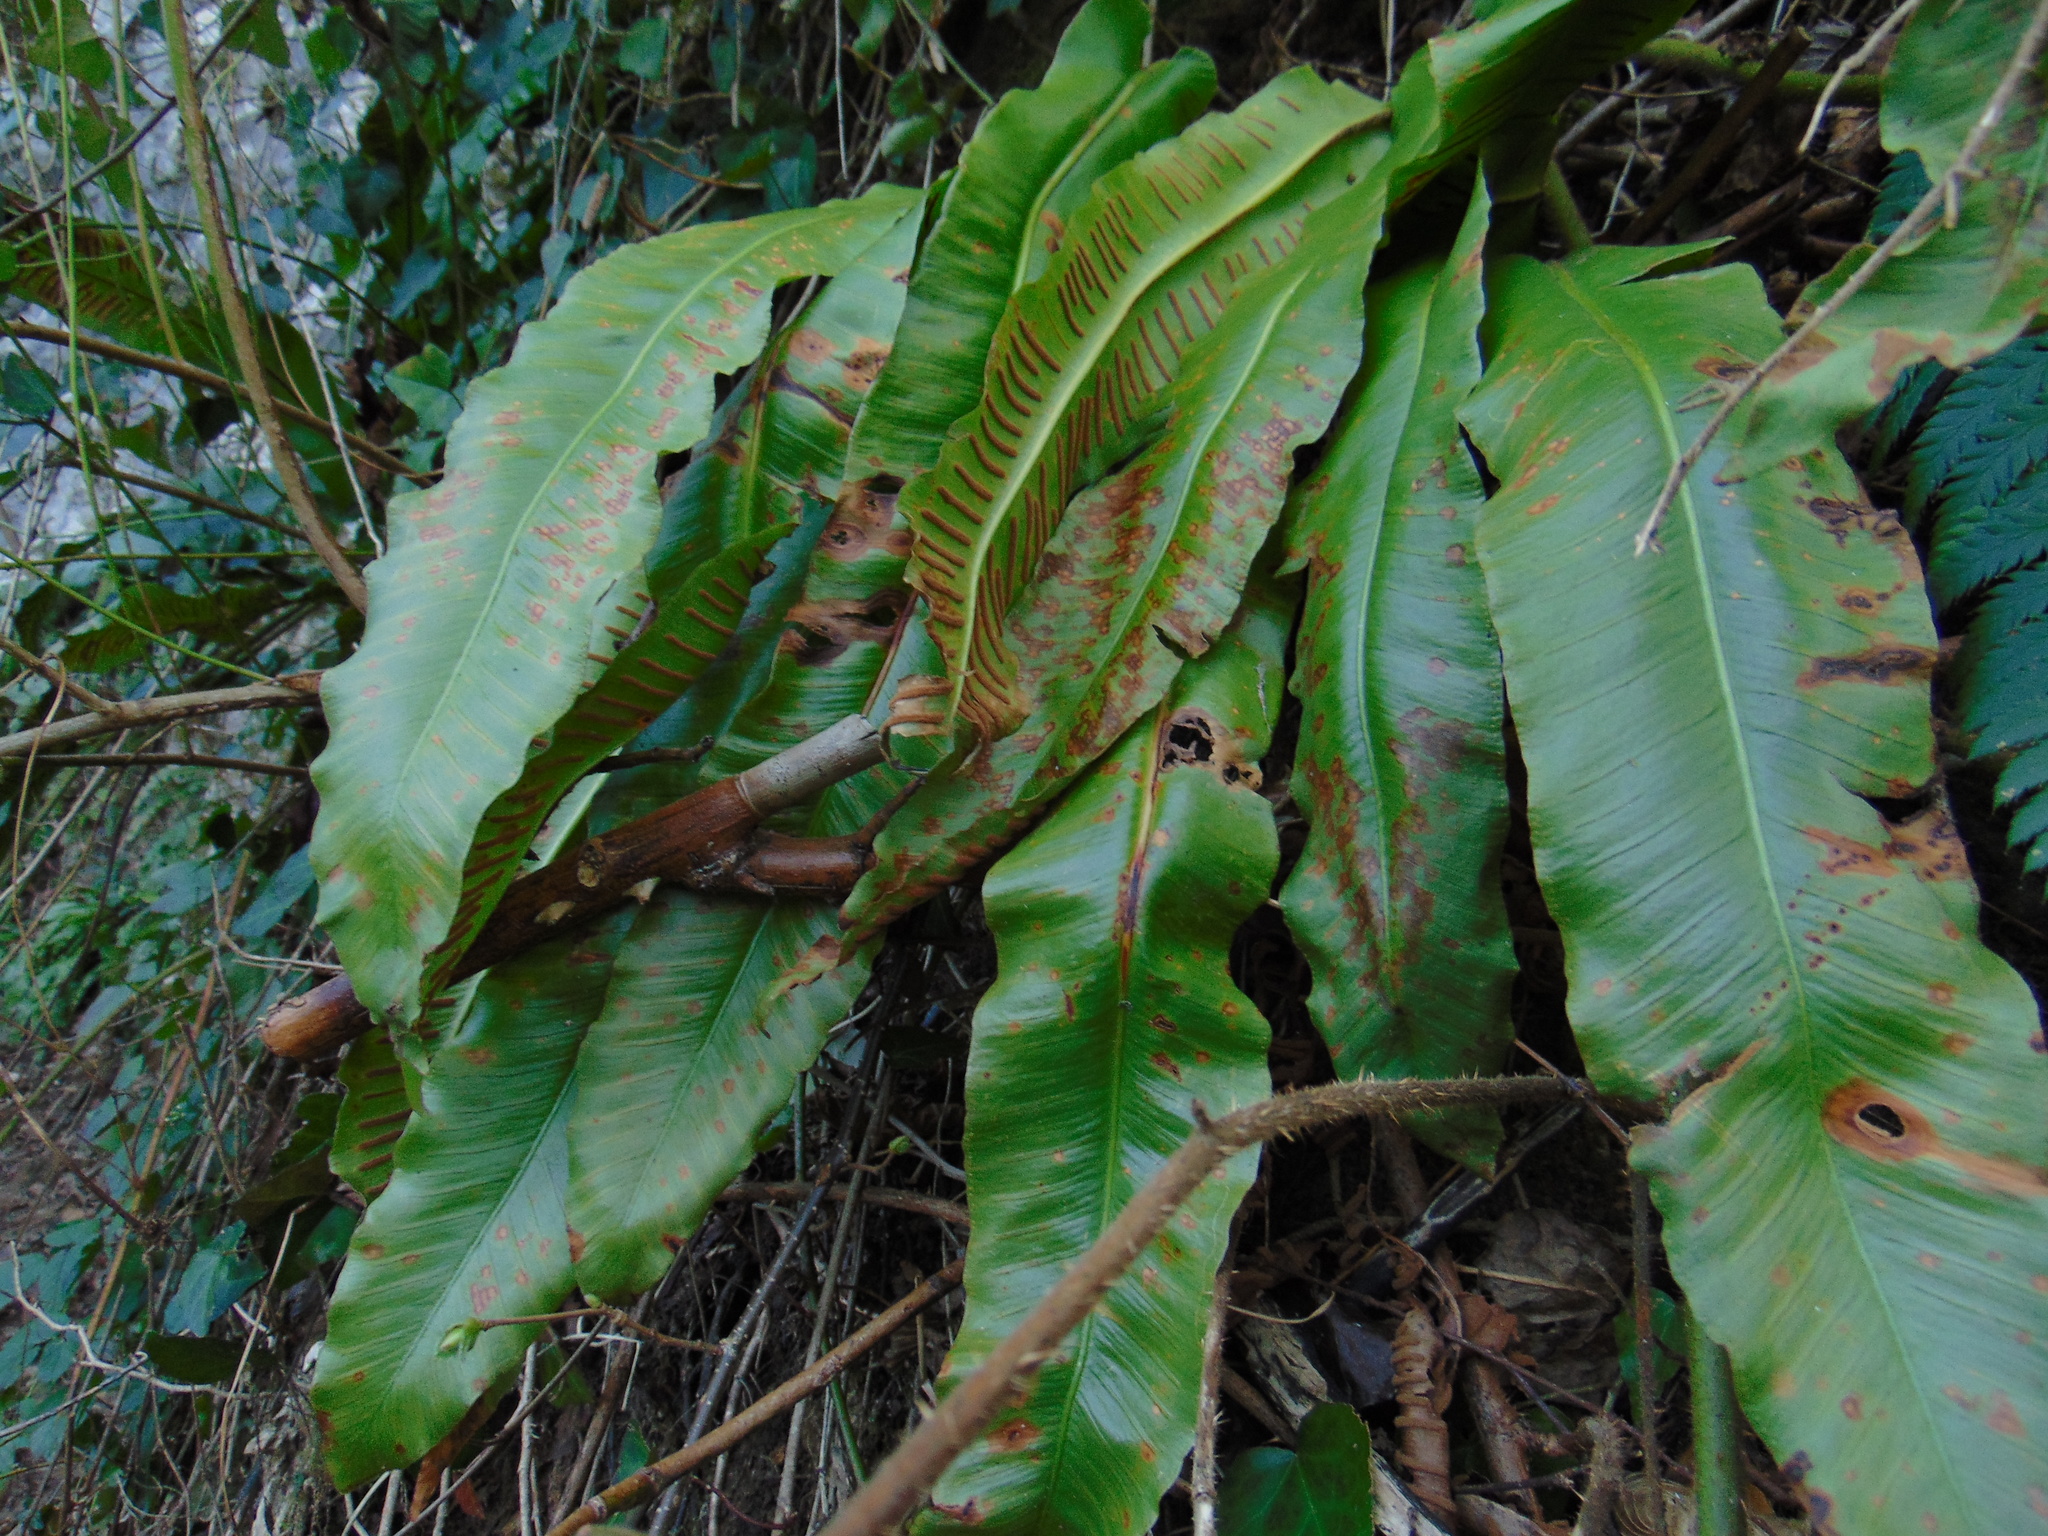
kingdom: Plantae
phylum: Tracheophyta
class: Polypodiopsida
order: Polypodiales
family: Aspleniaceae
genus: Asplenium
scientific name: Asplenium scolopendrium
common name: Hart's-tongue fern
